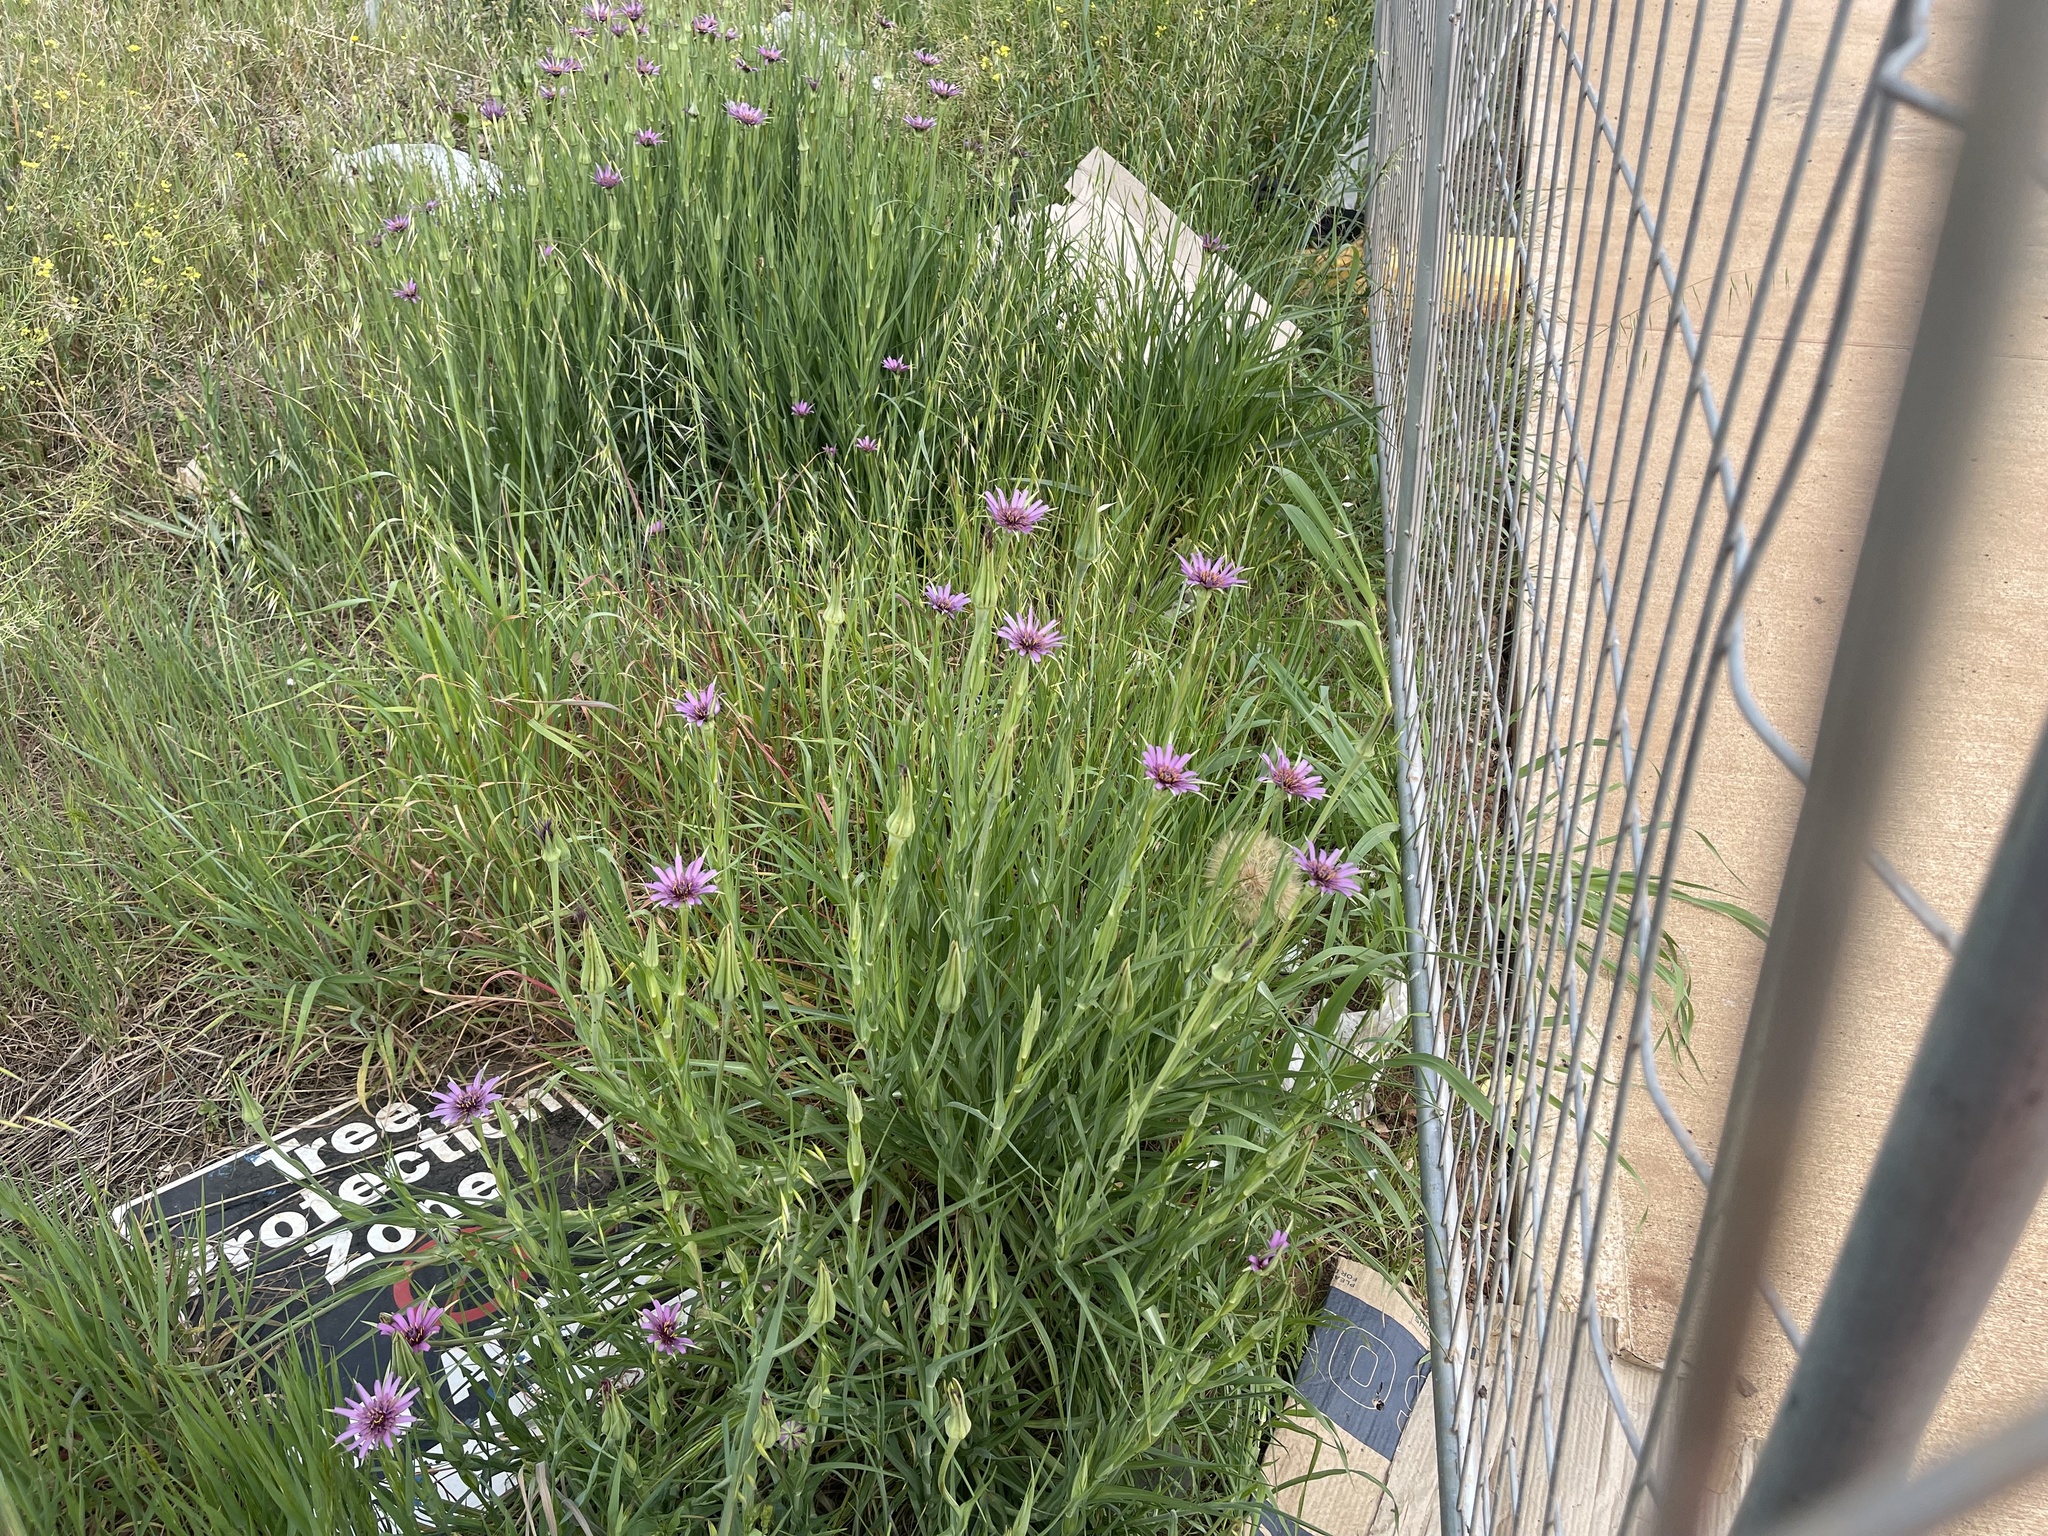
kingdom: Plantae
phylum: Tracheophyta
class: Magnoliopsida
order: Asterales
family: Asteraceae
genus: Tragopogon
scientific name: Tragopogon porrifolius
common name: Salsify
